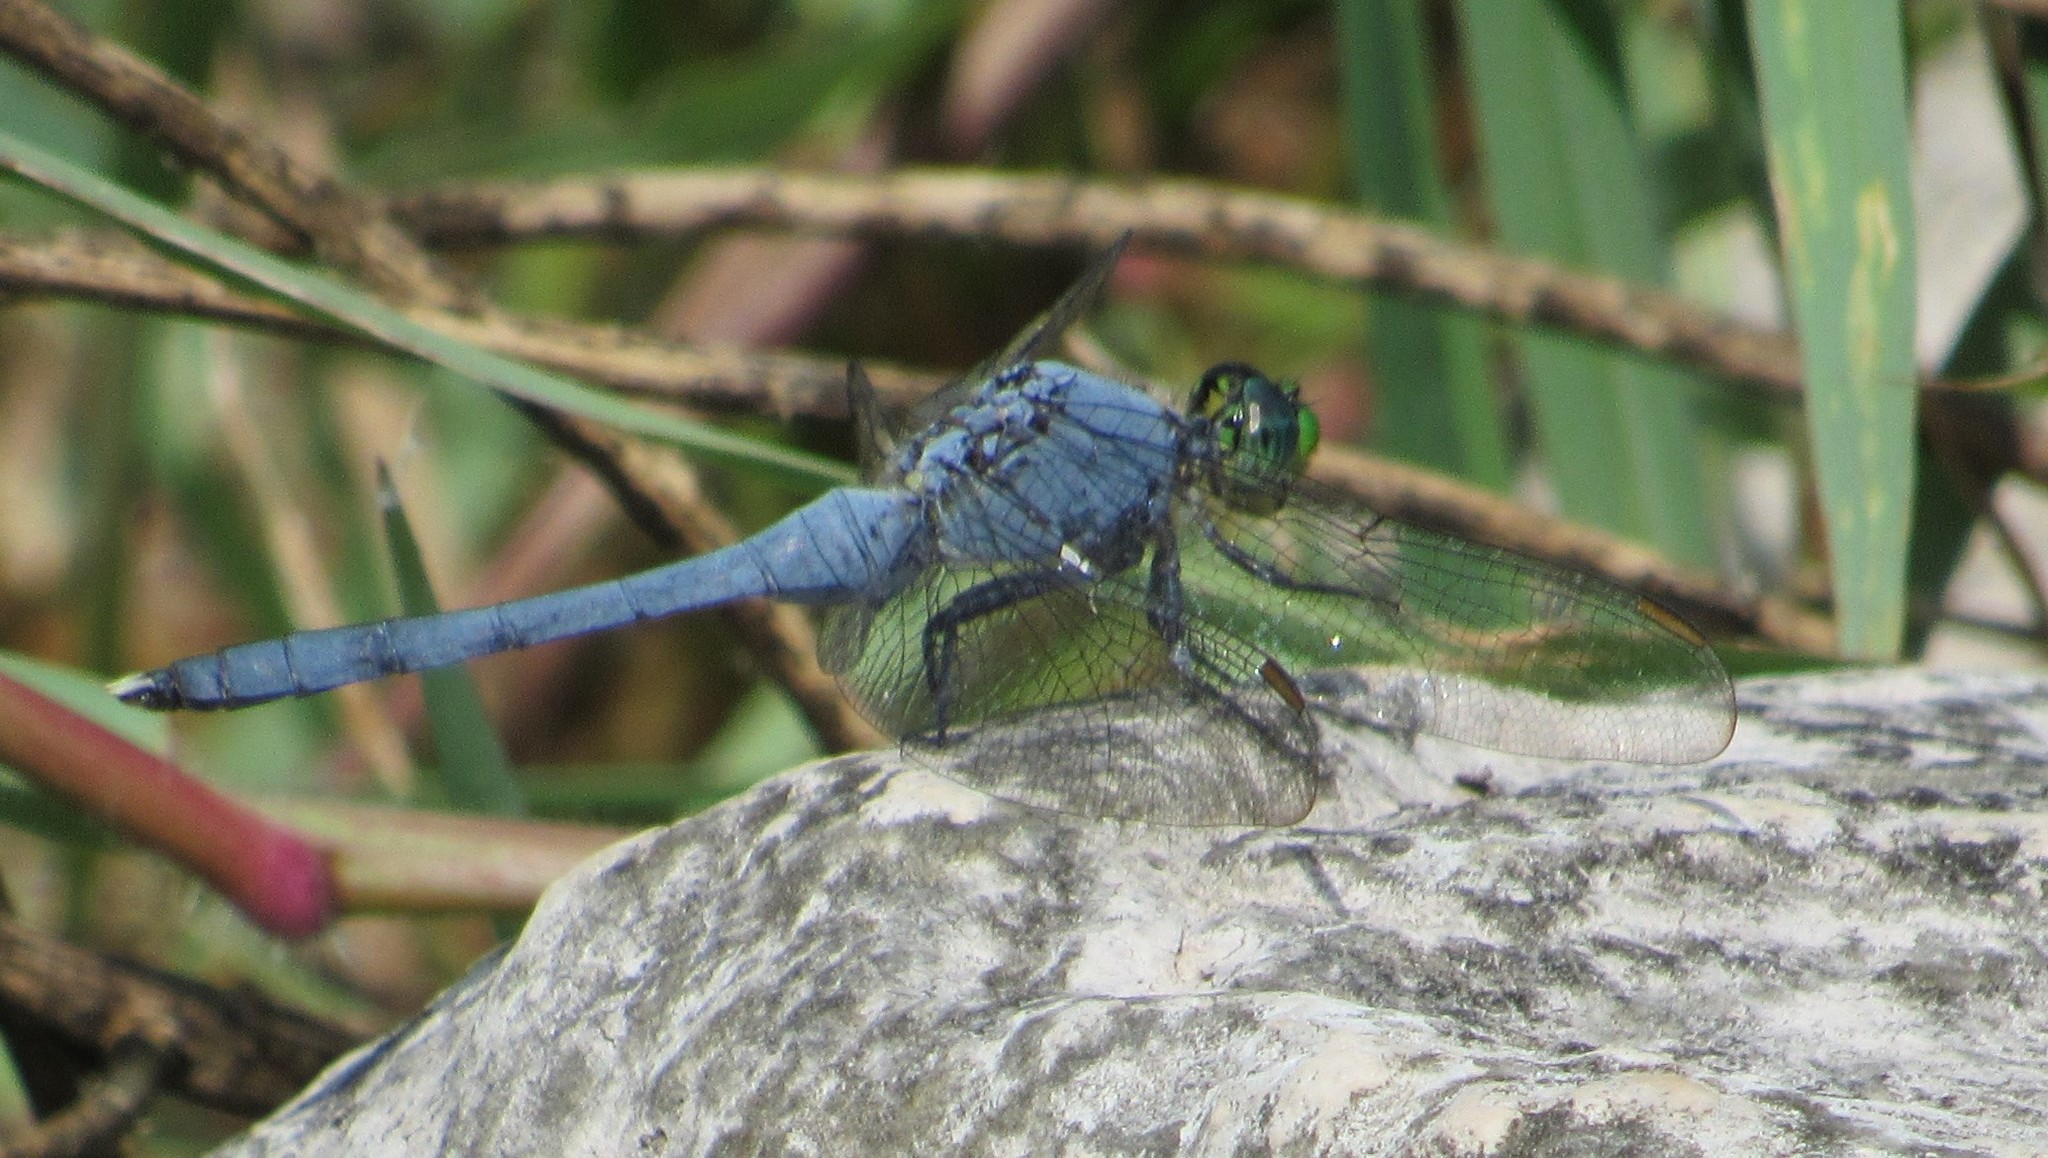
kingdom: Animalia
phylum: Arthropoda
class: Insecta
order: Odonata
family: Libellulidae
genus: Erythemis
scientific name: Erythemis simplicicollis
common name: Eastern pondhawk
